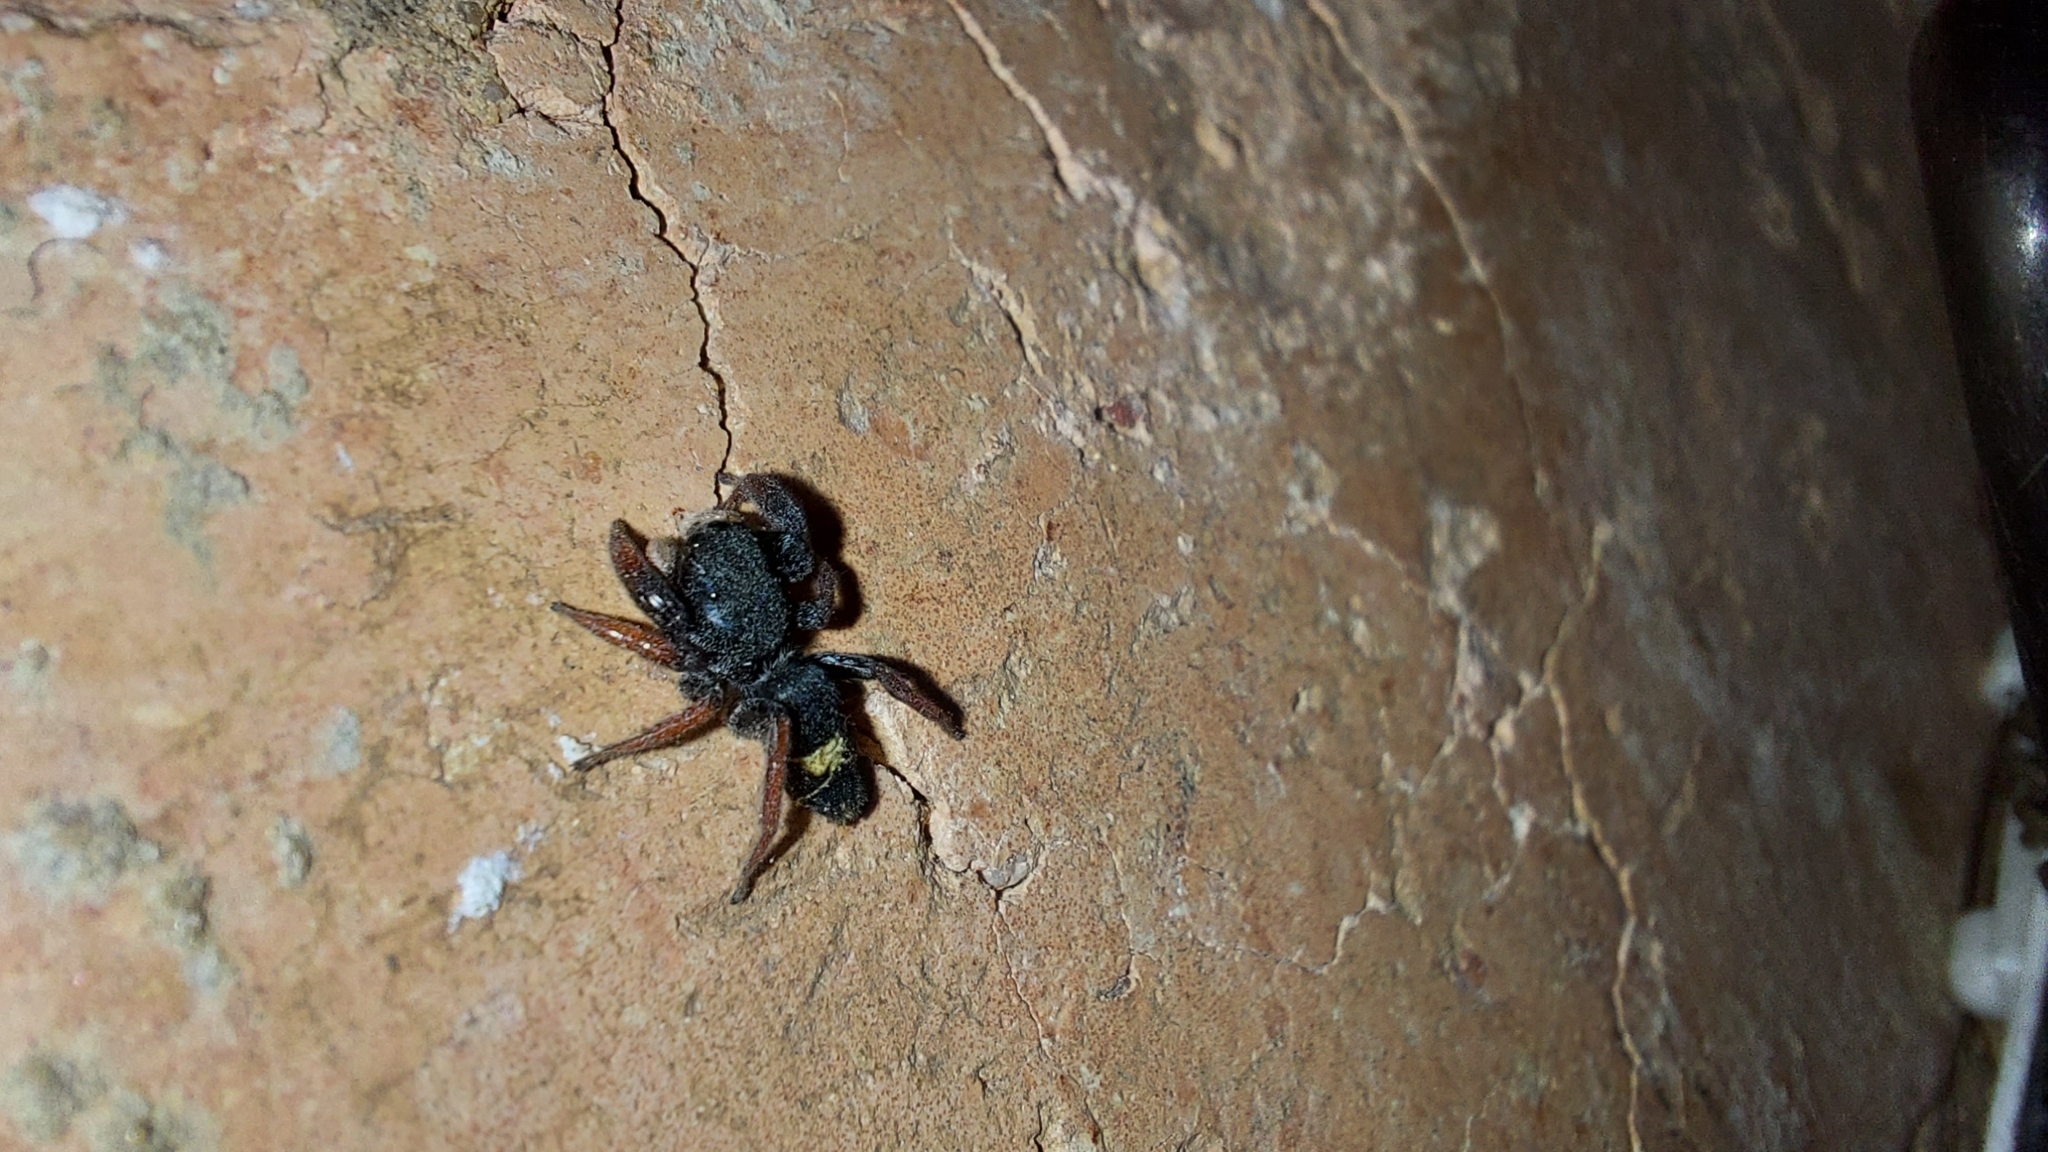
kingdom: Animalia
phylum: Arthropoda
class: Arachnida
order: Araneae
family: Salticidae
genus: Apricia
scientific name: Apricia jovialis
